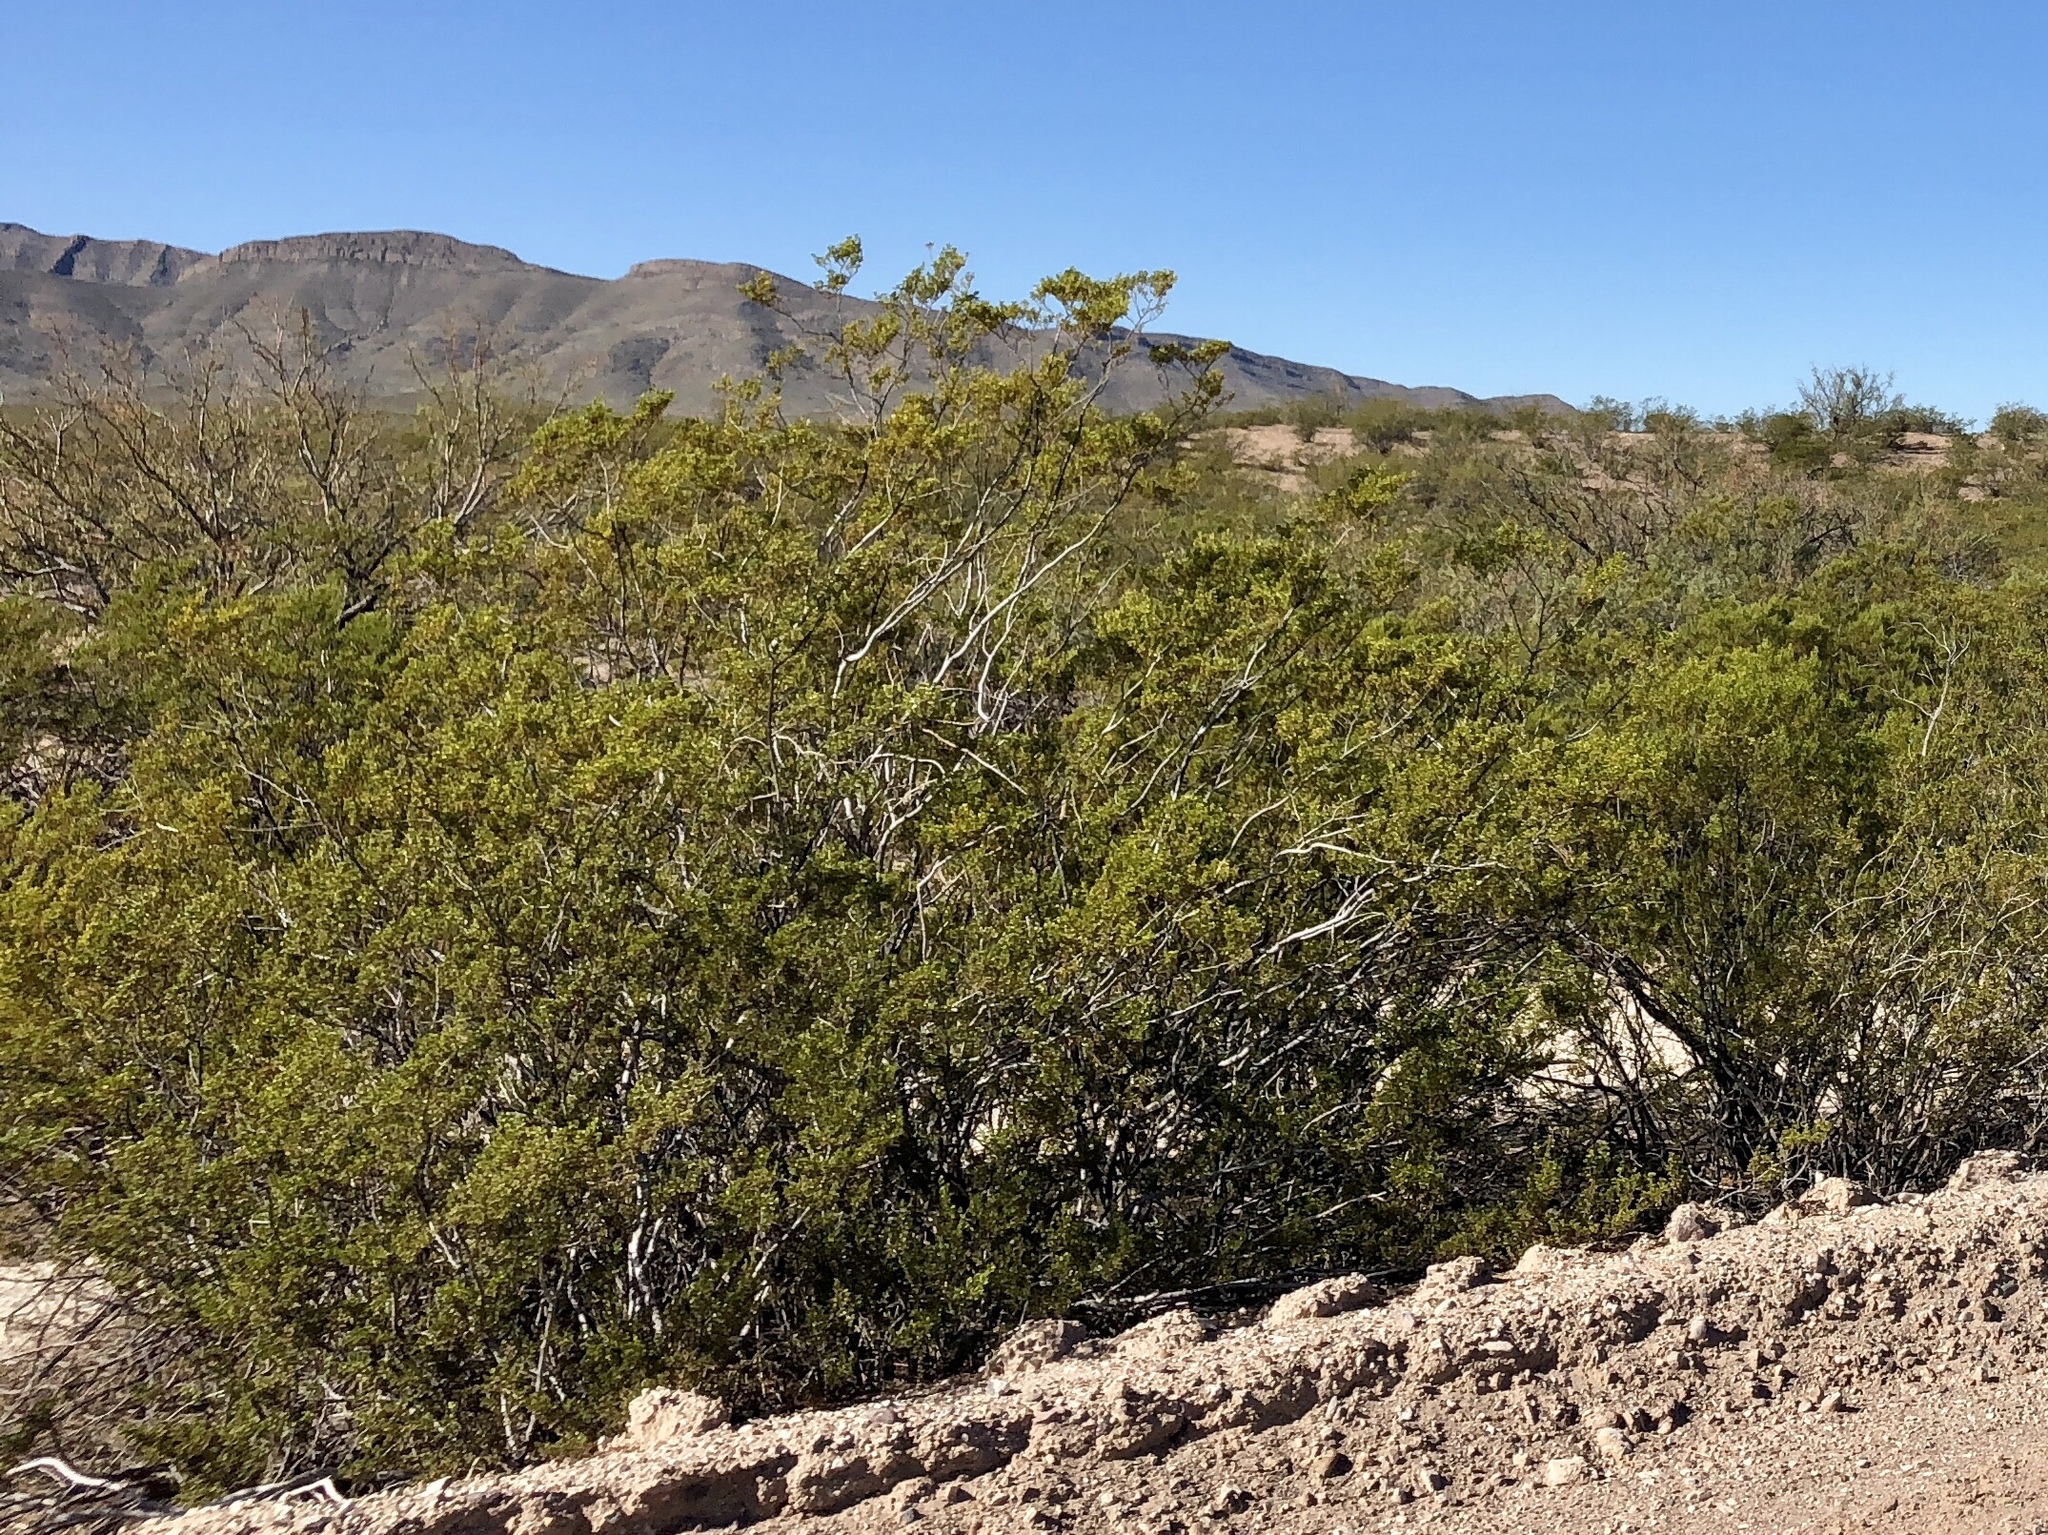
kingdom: Plantae
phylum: Tracheophyta
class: Magnoliopsida
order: Zygophyllales
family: Zygophyllaceae
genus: Larrea
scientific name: Larrea tridentata
